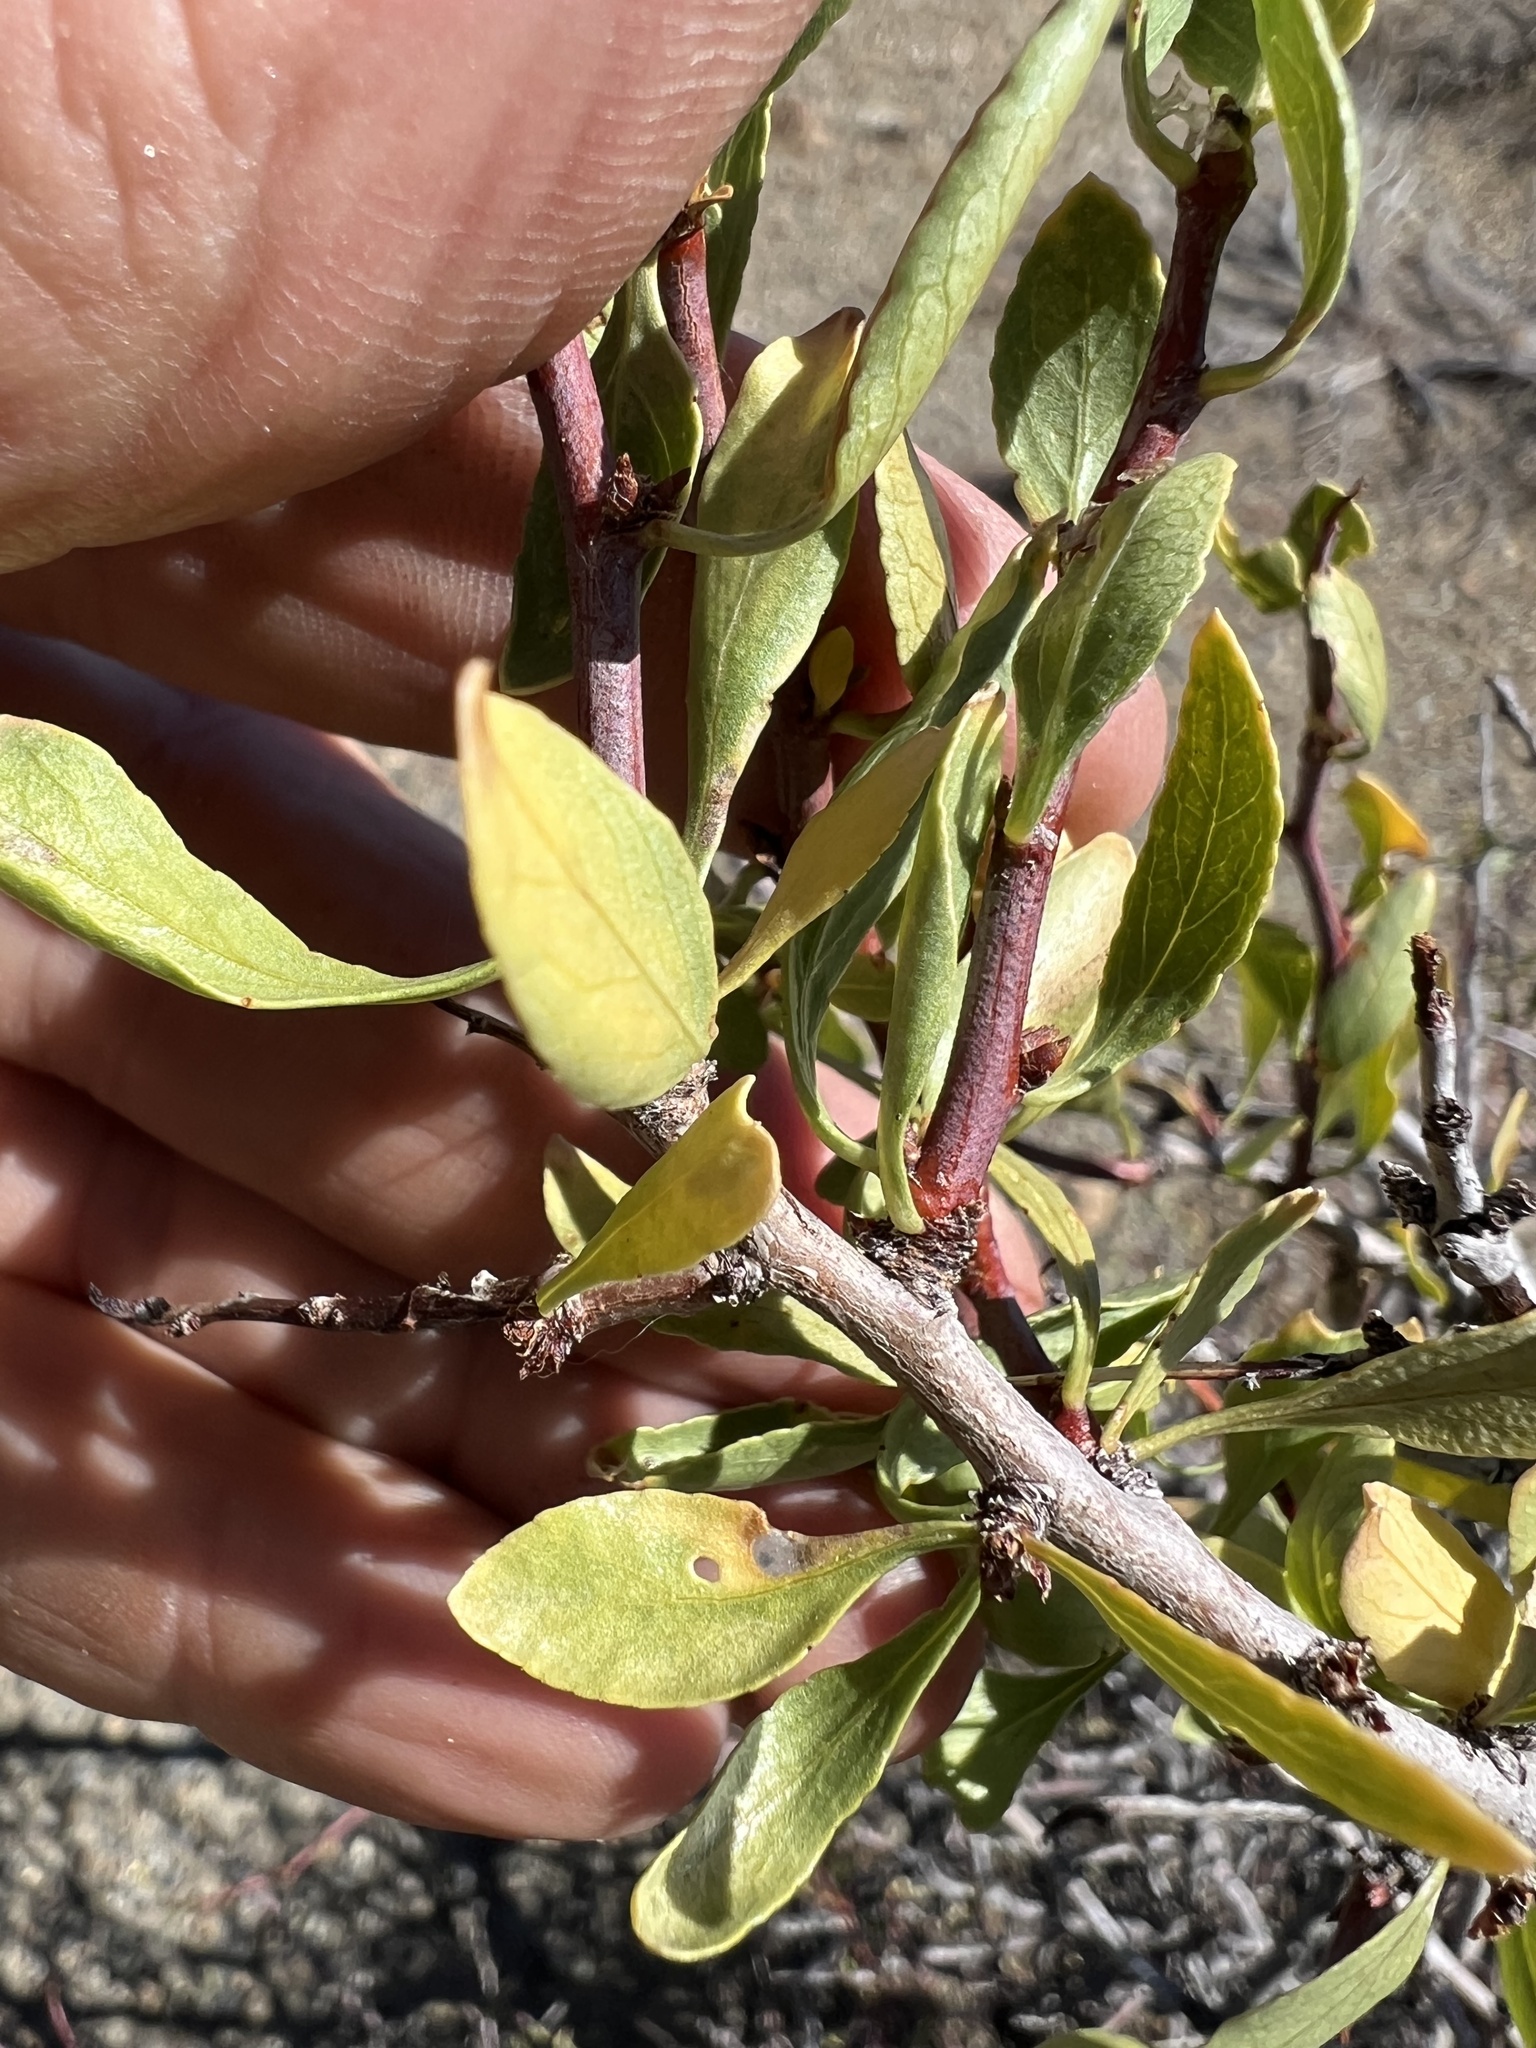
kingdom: Plantae
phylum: Tracheophyta
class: Magnoliopsida
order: Rosales
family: Rosaceae
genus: Prunus
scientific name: Prunus andersonii
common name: Desert peach
